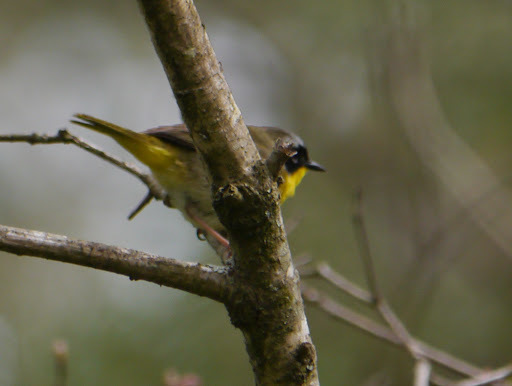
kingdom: Animalia
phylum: Chordata
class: Aves
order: Passeriformes
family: Parulidae
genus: Geothlypis
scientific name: Geothlypis trichas
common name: Common yellowthroat
